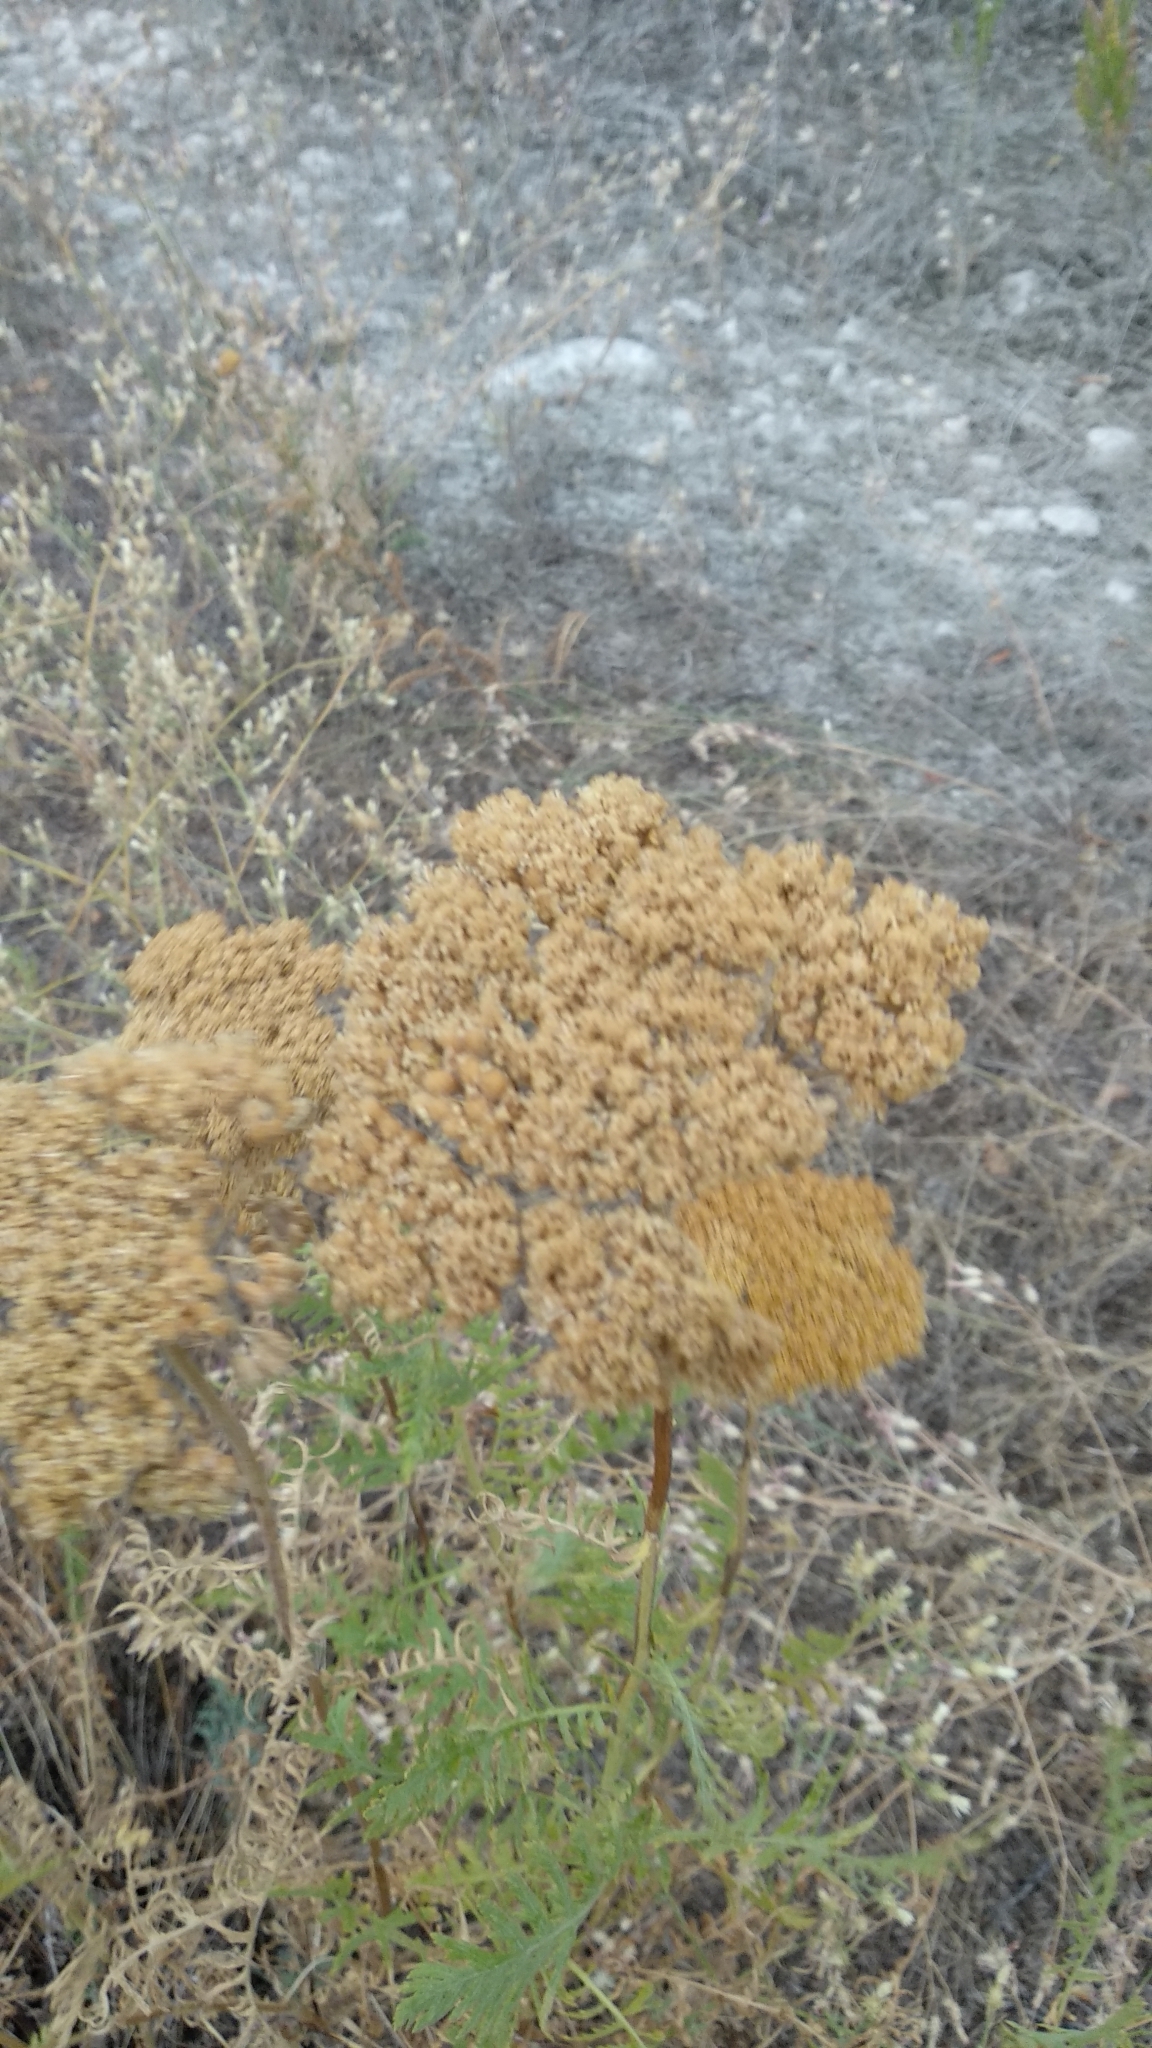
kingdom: Plantae
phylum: Tracheophyta
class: Magnoliopsida
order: Asterales
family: Asteraceae
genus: Achillea
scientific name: Achillea filipendulina
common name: Fernleaf yarrow
